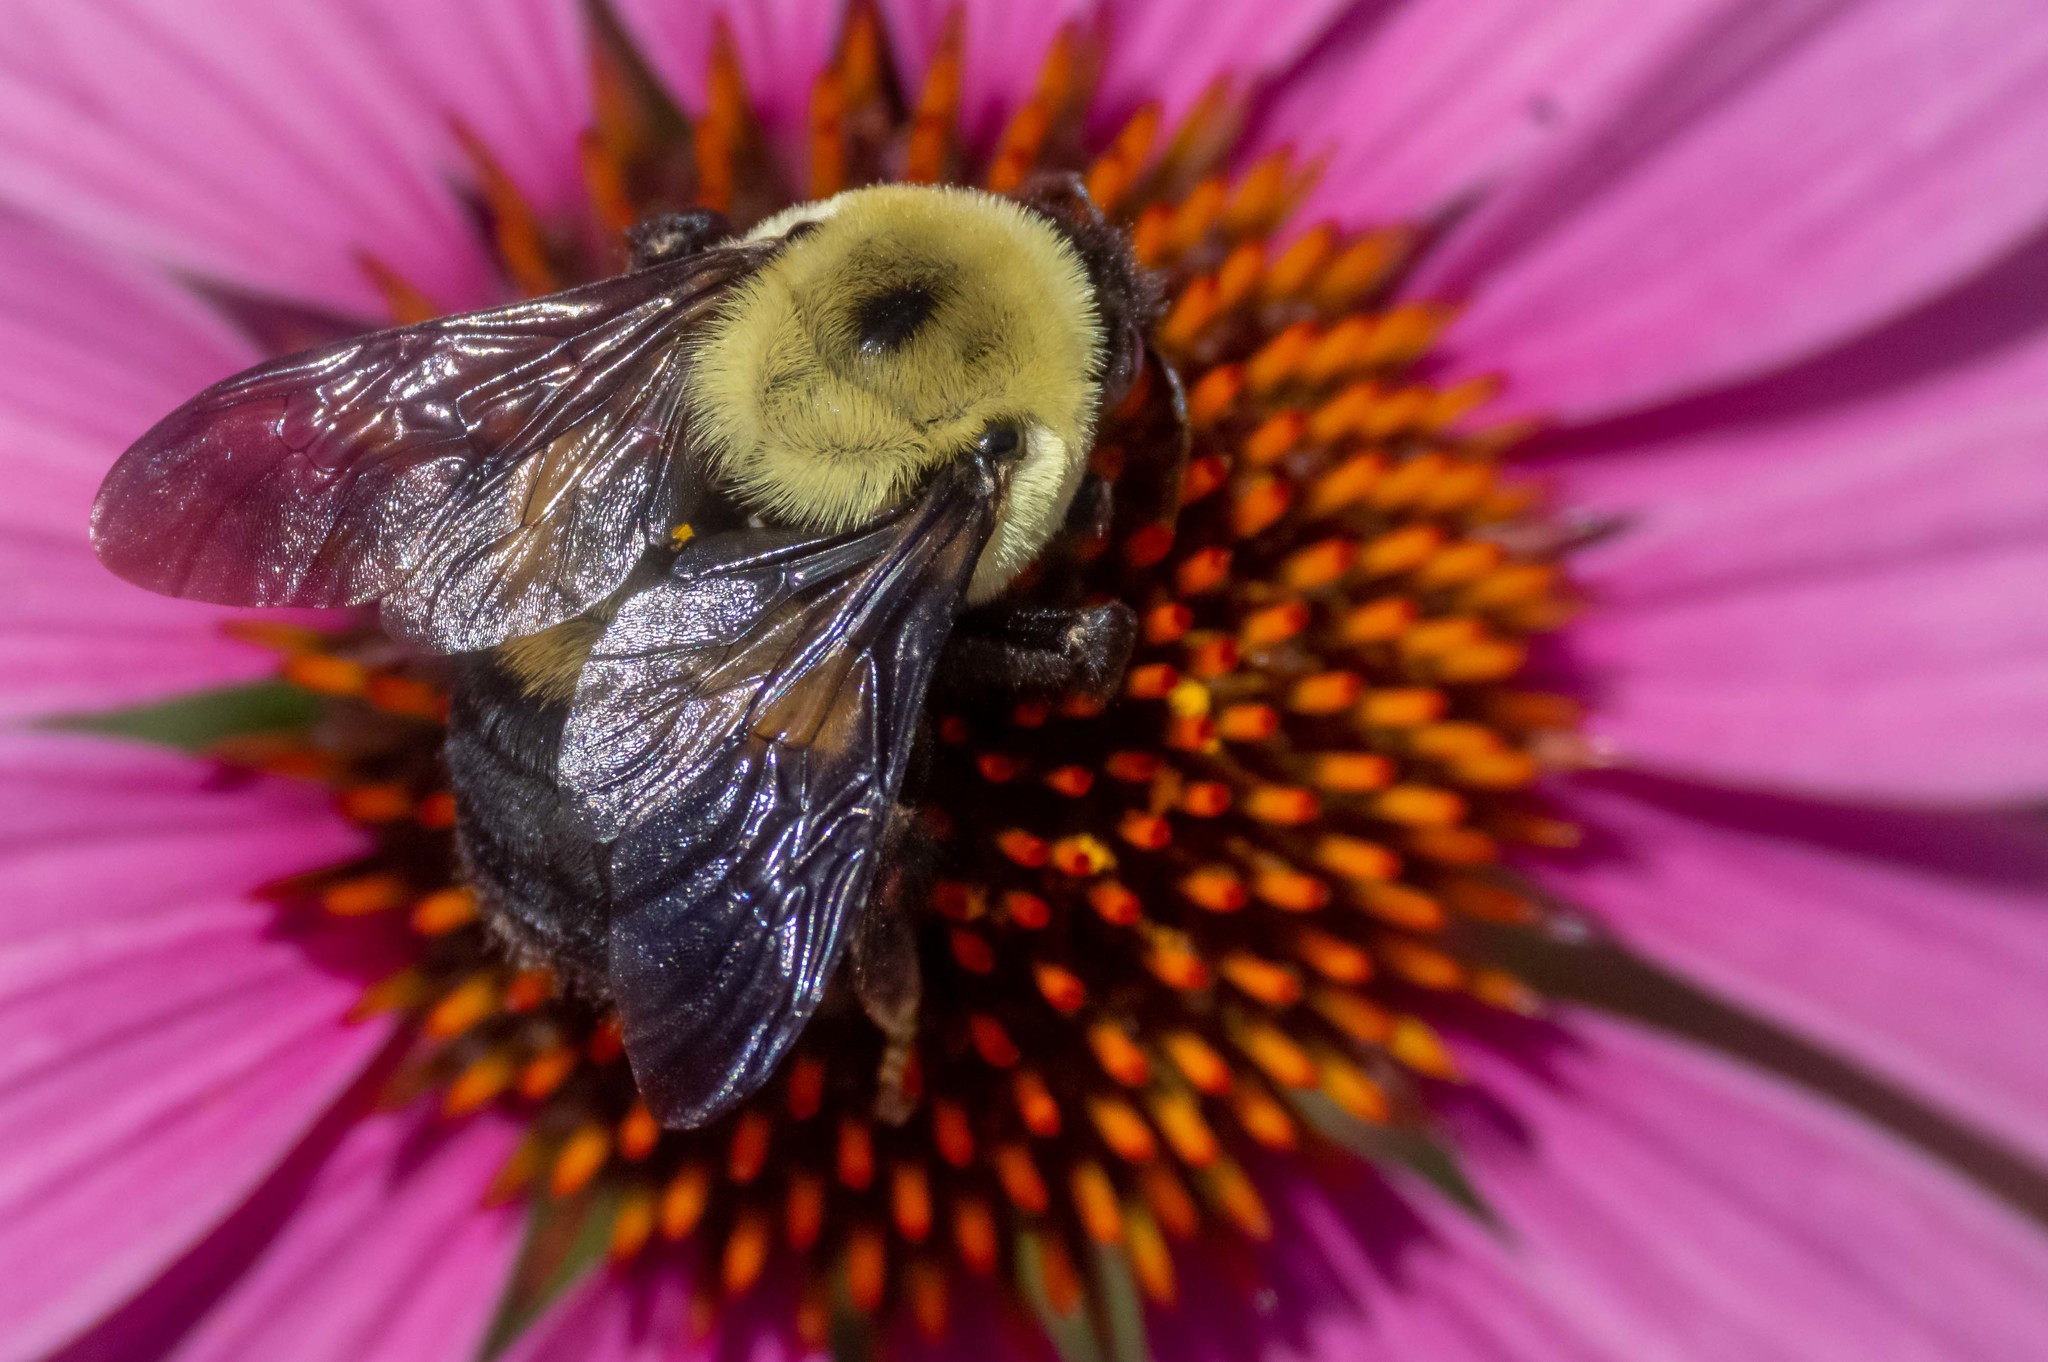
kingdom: Animalia
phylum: Arthropoda
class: Insecta
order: Hymenoptera
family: Apidae
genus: Bombus
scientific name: Bombus griseocollis
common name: Brown-belted bumble bee
